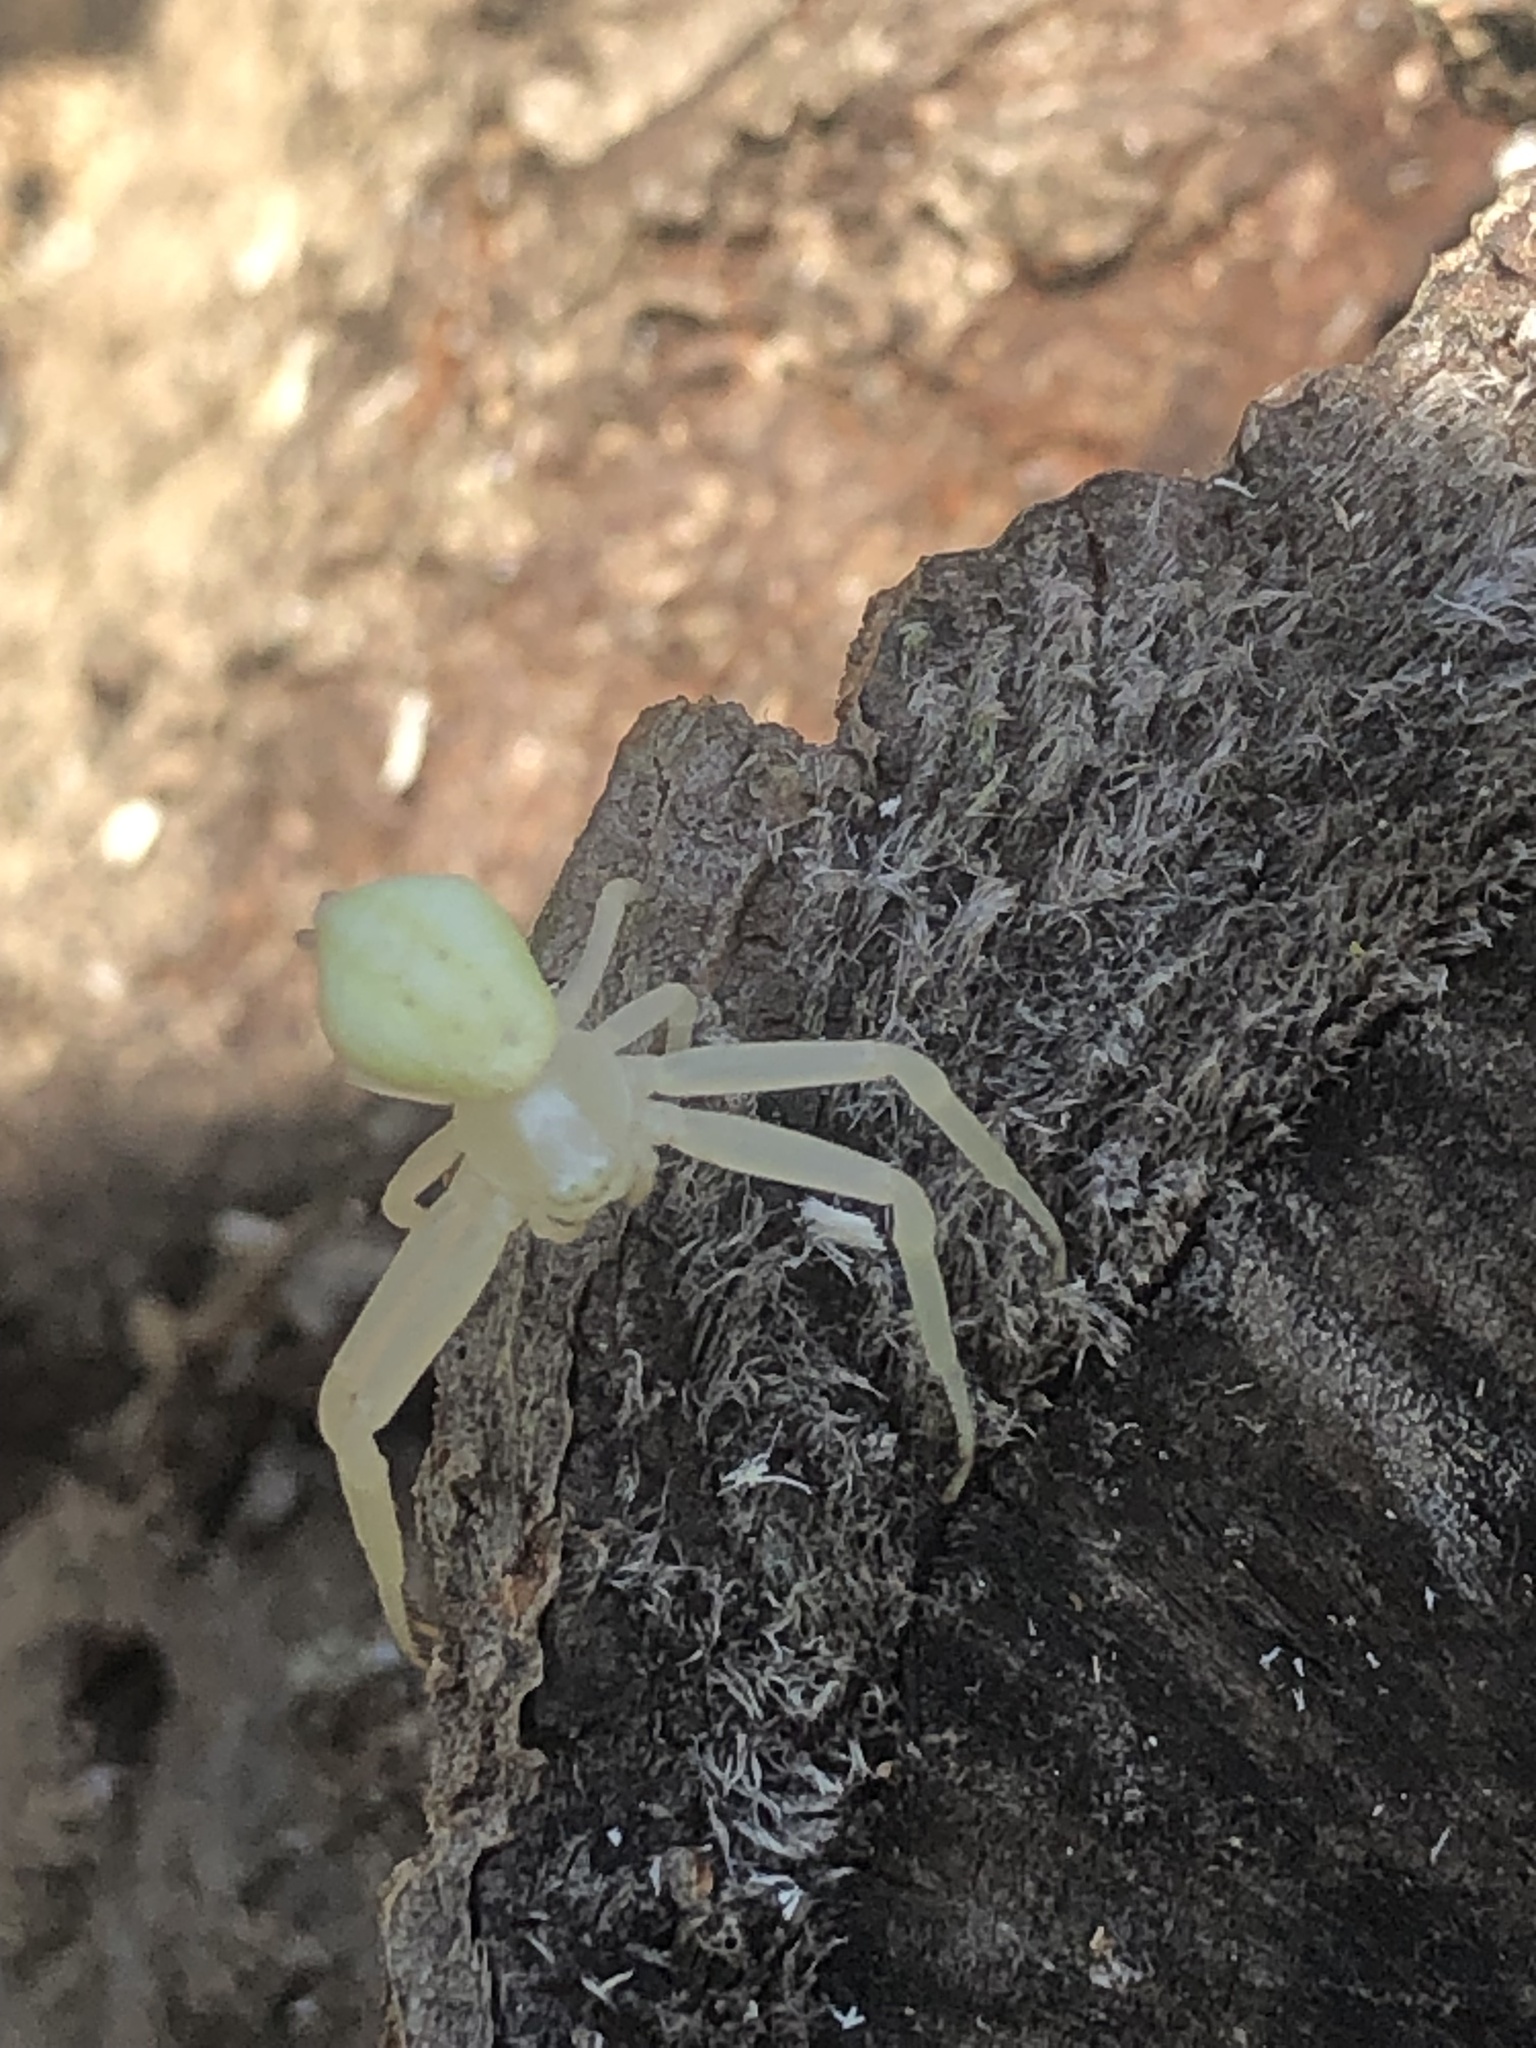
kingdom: Animalia
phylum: Arthropoda
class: Arachnida
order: Araneae
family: Thomisidae
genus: Misumena
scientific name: Misumena vatia
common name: Goldenrod crab spider
